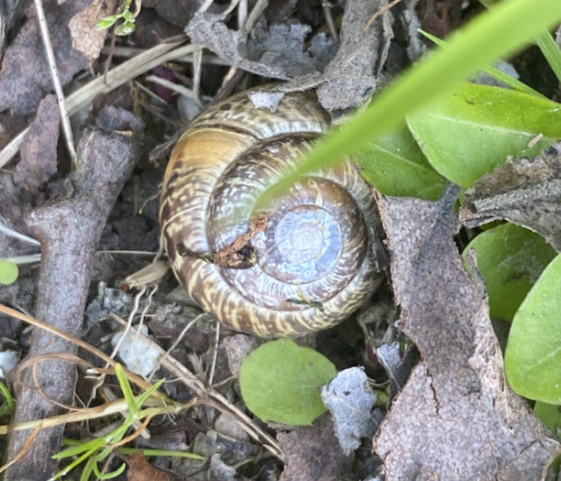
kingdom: Animalia
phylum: Mollusca
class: Gastropoda
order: Stylommatophora
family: Helicidae
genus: Arianta
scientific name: Arianta arbustorum
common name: Copse snail
